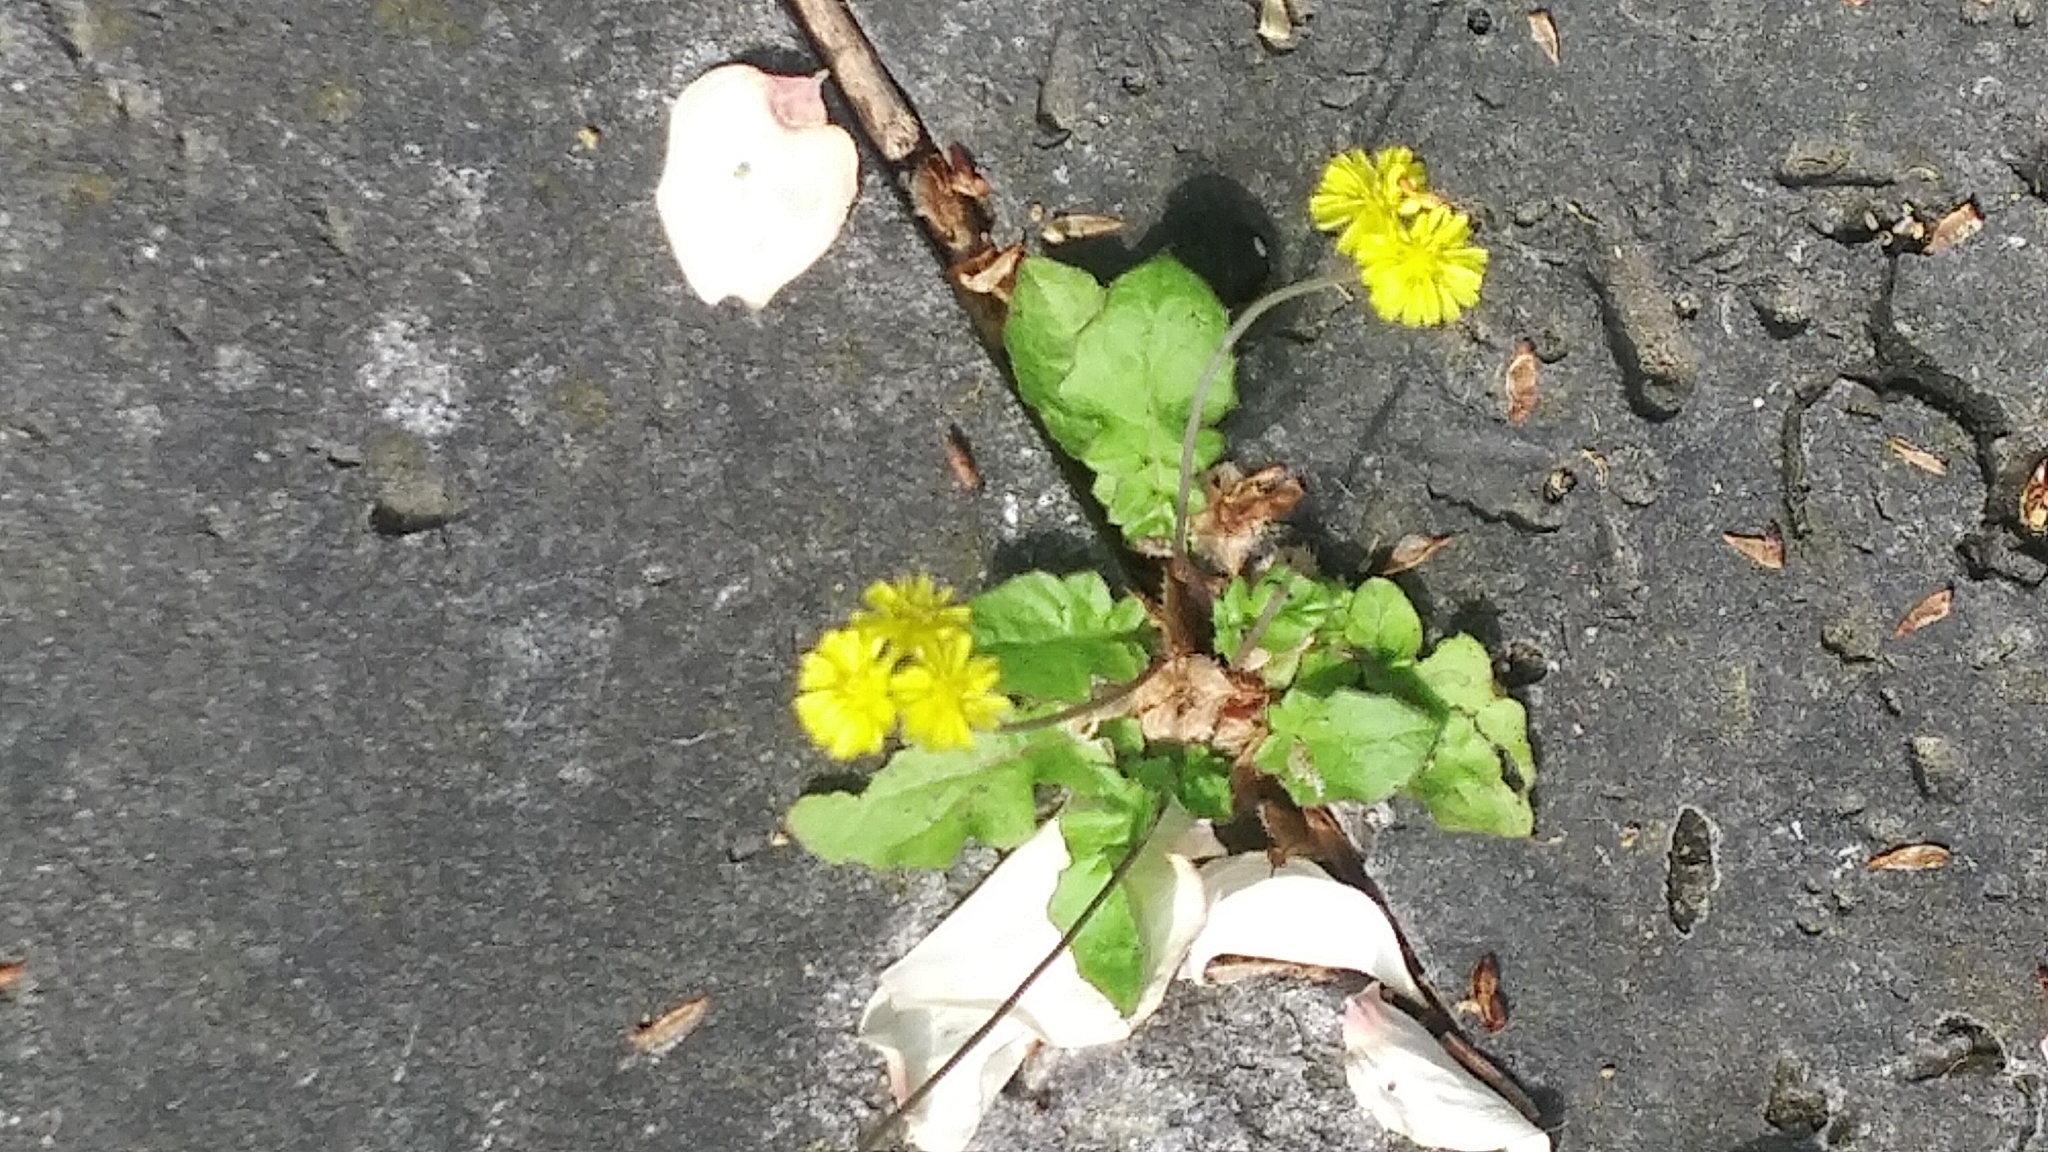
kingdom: Plantae
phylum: Tracheophyta
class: Magnoliopsida
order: Asterales
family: Asteraceae
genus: Youngia
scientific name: Youngia japonica
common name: Oriental false hawksbeard
